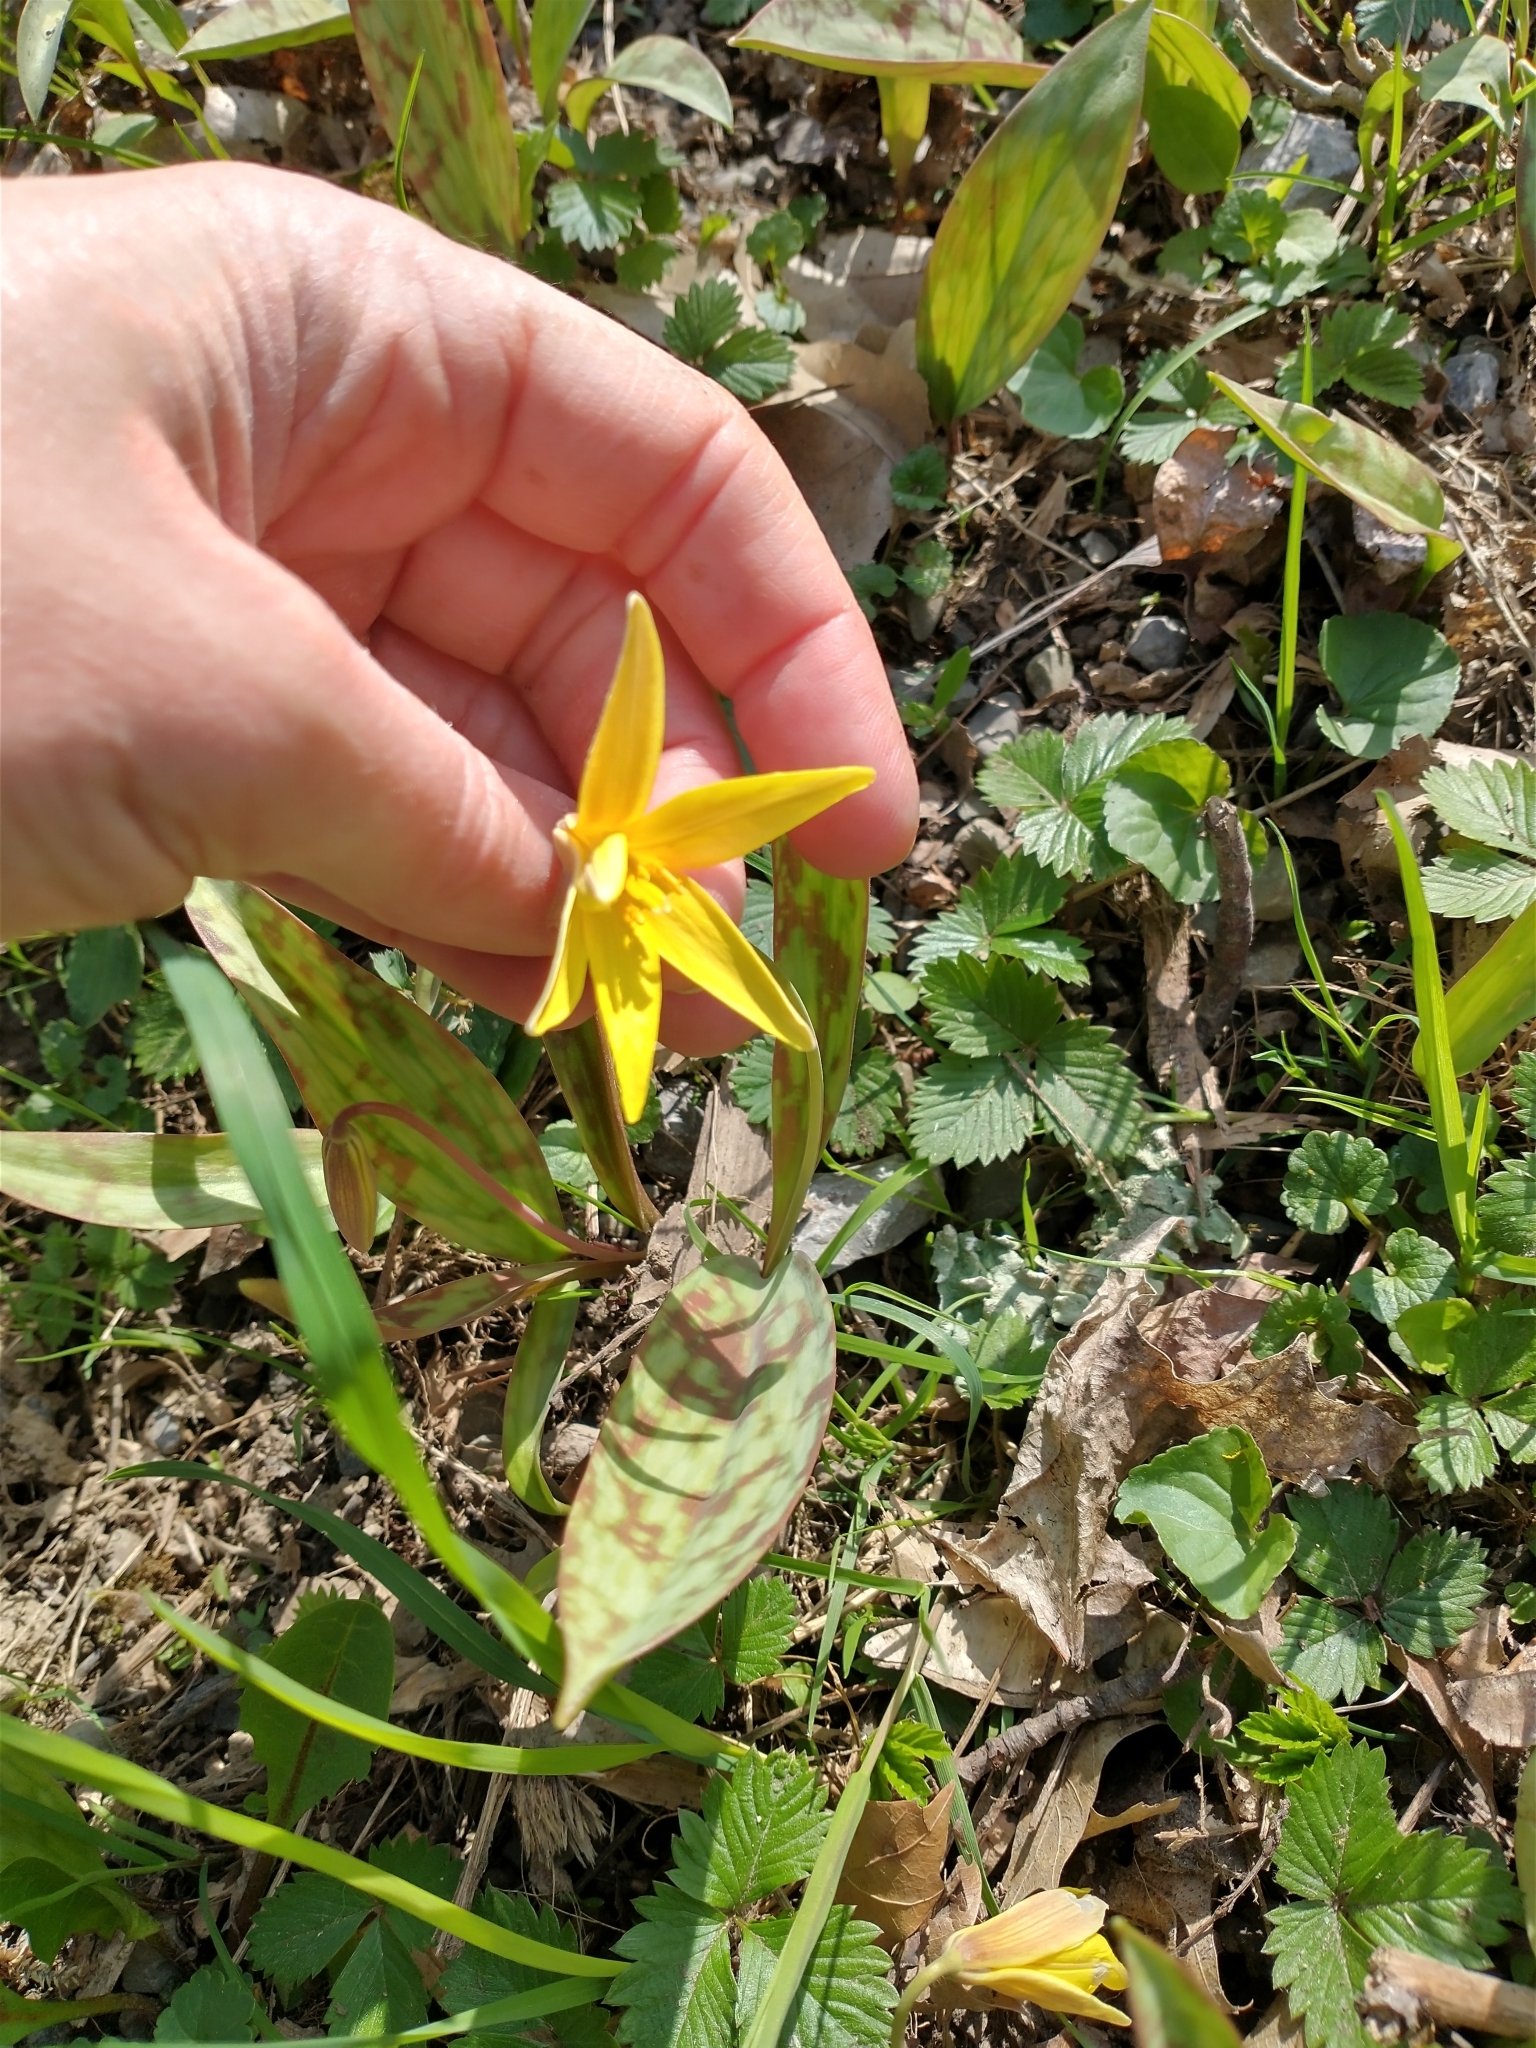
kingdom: Plantae
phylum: Tracheophyta
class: Liliopsida
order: Liliales
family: Liliaceae
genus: Erythronium
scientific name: Erythronium americanum
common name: Yellow adder's-tongue
